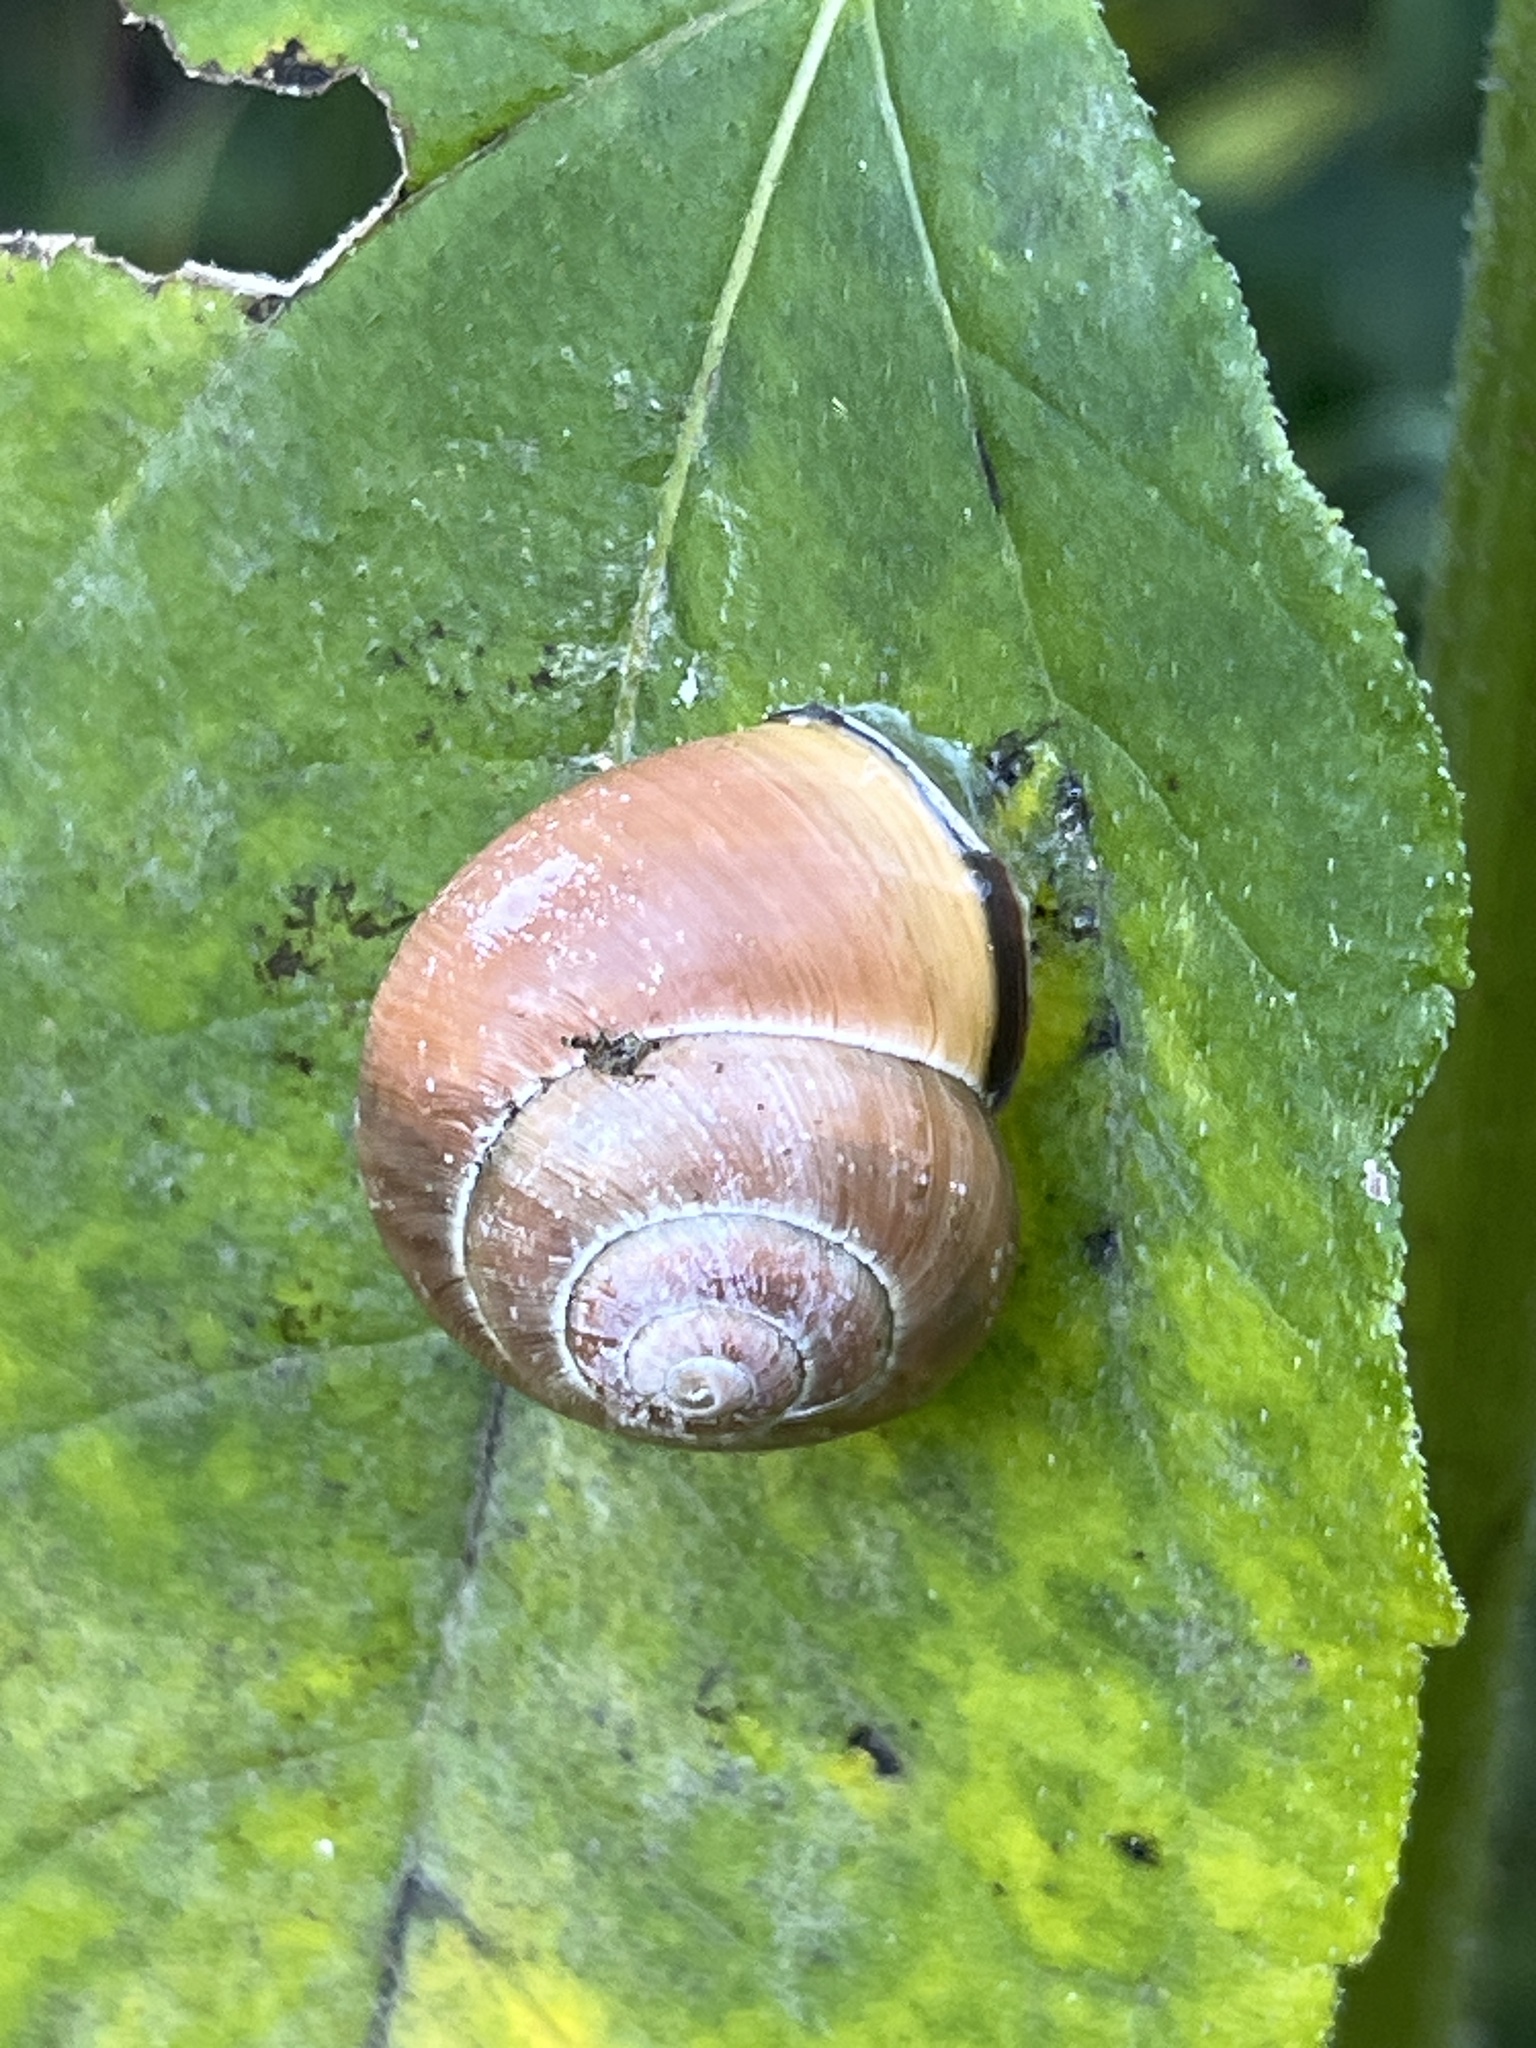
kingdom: Animalia
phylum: Mollusca
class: Gastropoda
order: Stylommatophora
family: Helicidae
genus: Cepaea
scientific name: Cepaea nemoralis
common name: Grovesnail
